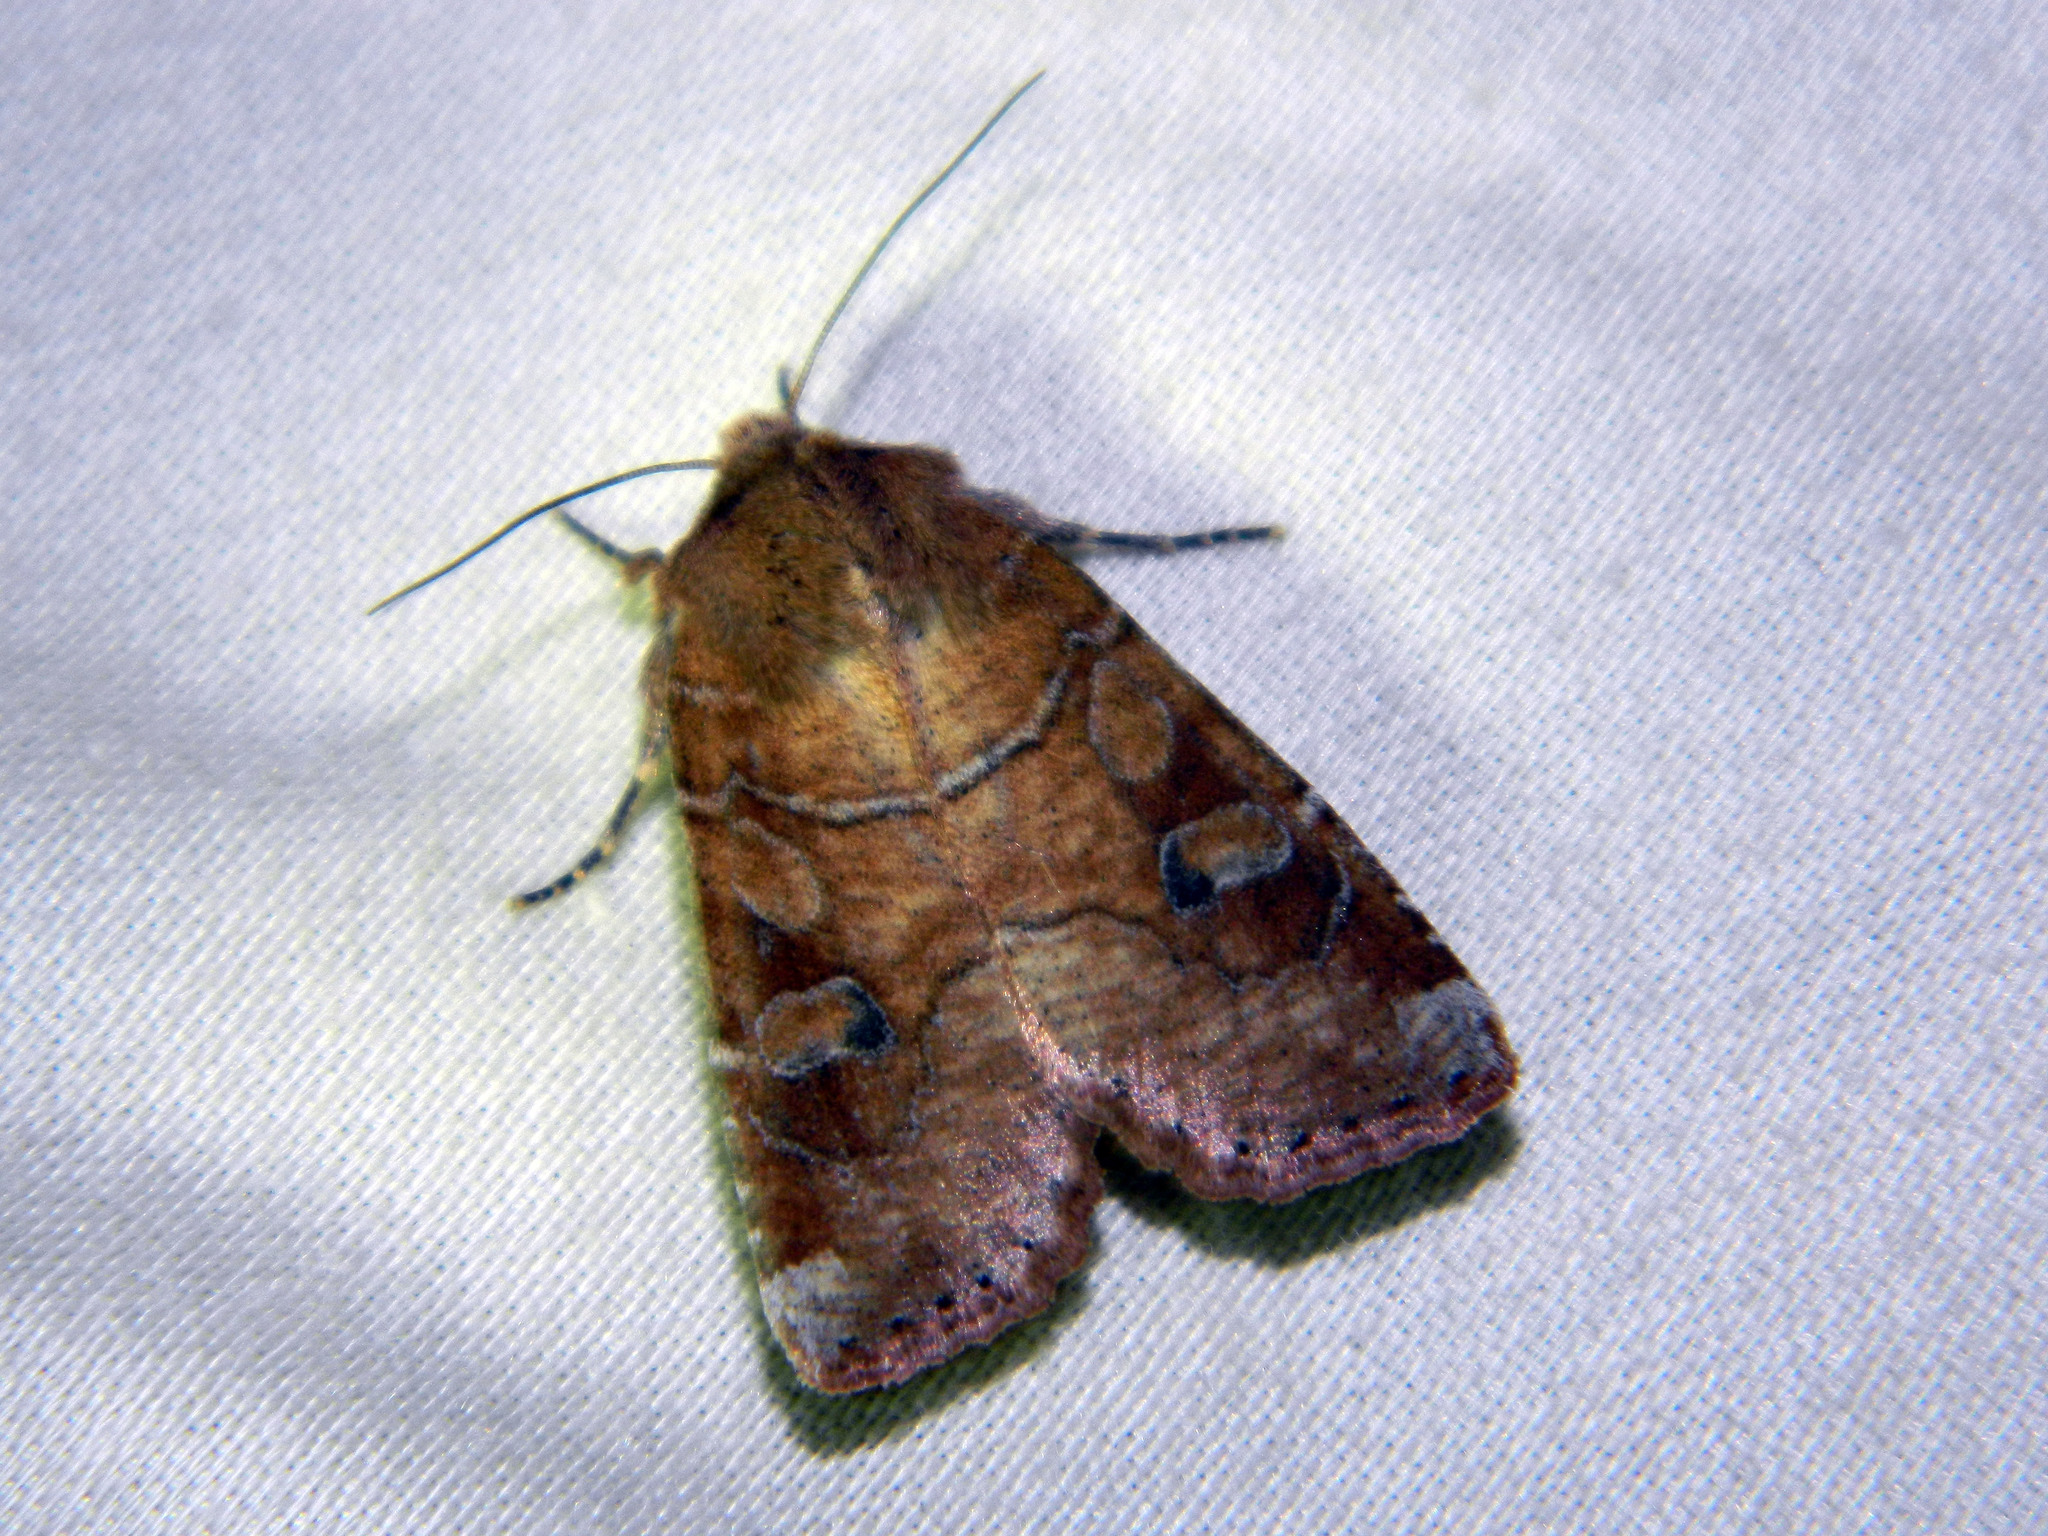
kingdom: Animalia
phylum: Arthropoda
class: Insecta
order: Lepidoptera
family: Noctuidae
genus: Crocigrapha
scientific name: Crocigrapha normani
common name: Norman's quaker
